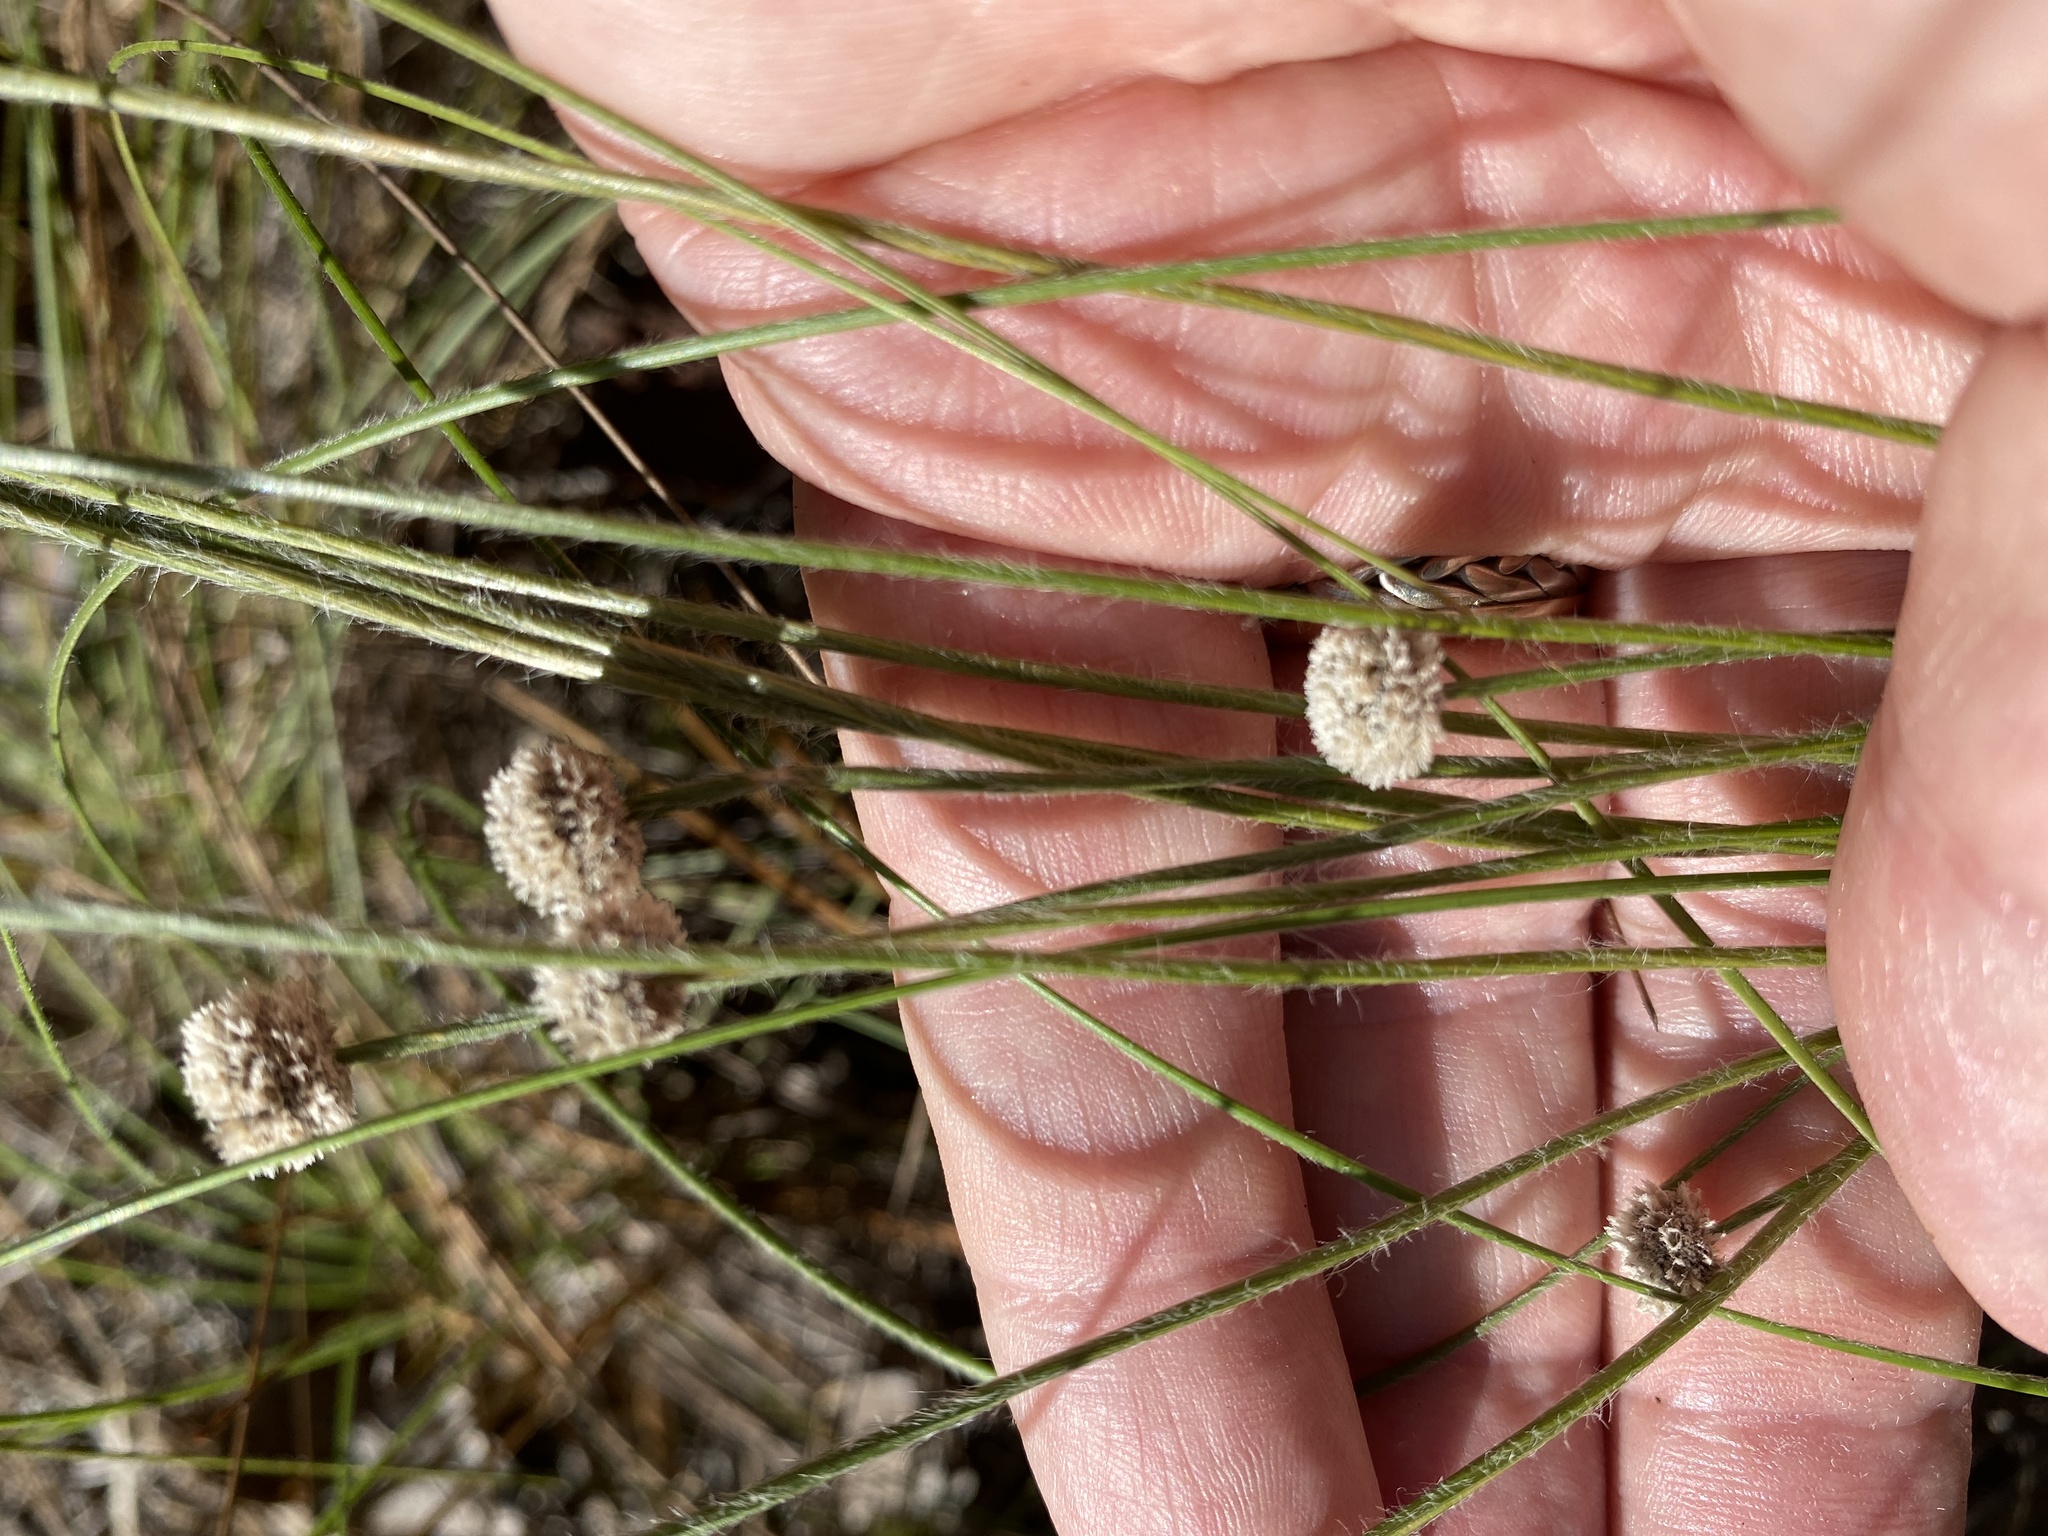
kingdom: Plantae
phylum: Tracheophyta
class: Liliopsida
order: Poales
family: Eriocaulaceae
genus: Paepalanthus
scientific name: Paepalanthus anceps
